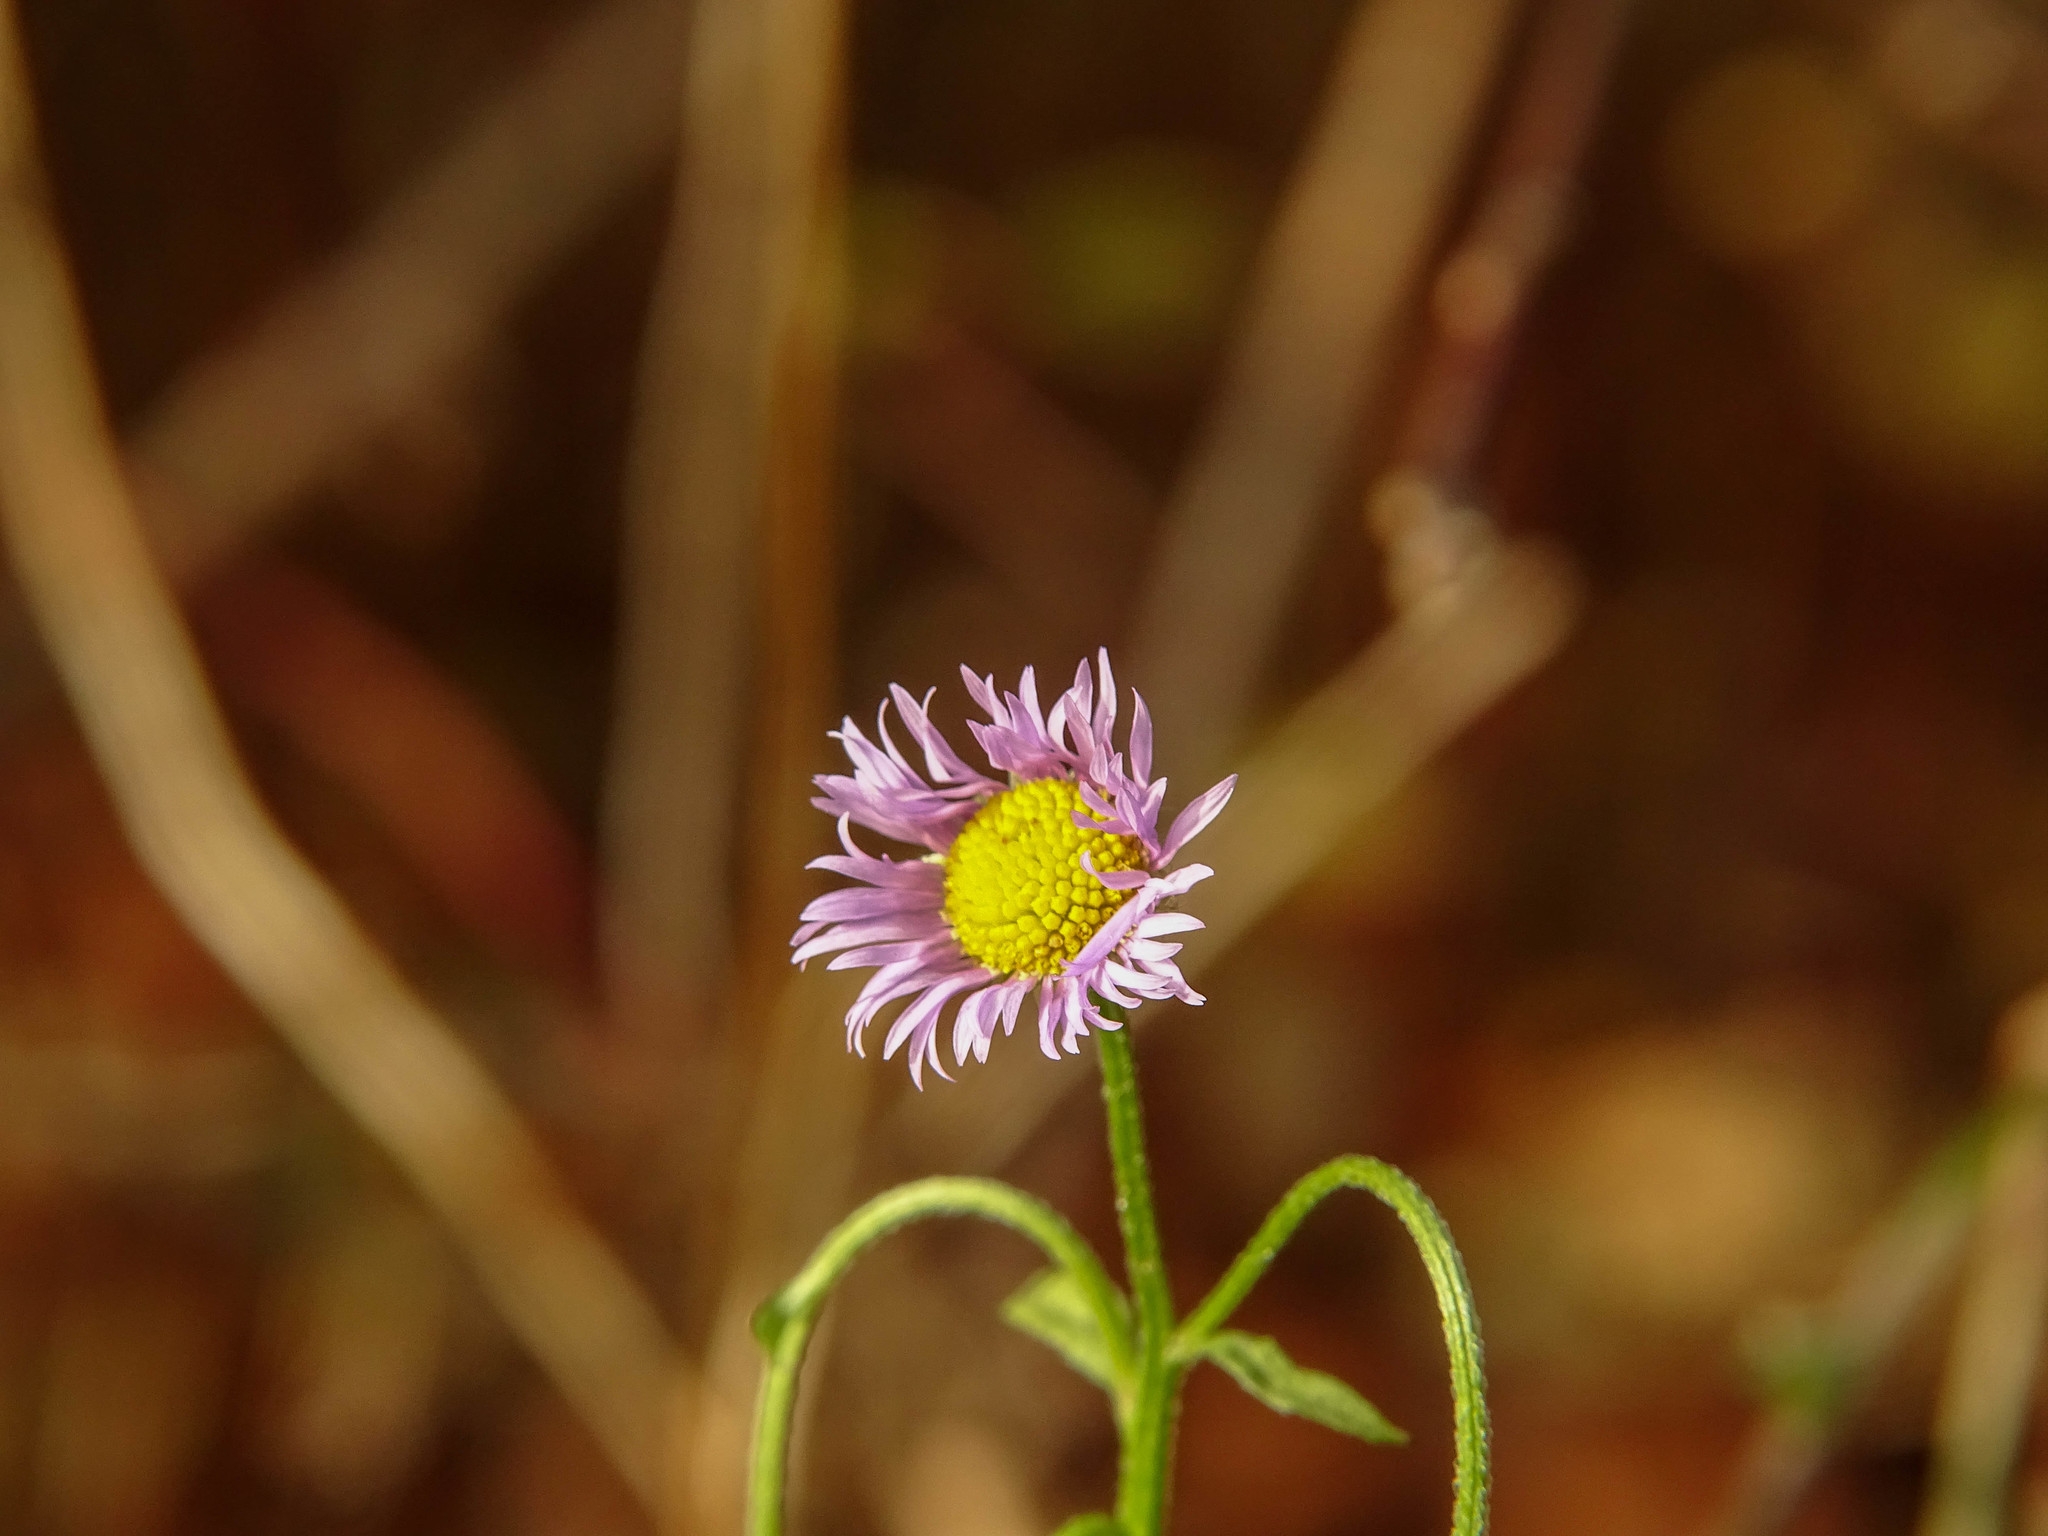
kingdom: Plantae
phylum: Tracheophyta
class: Magnoliopsida
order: Asterales
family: Asteraceae
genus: Erigeron
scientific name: Erigeron annuus
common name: Tall fleabane
